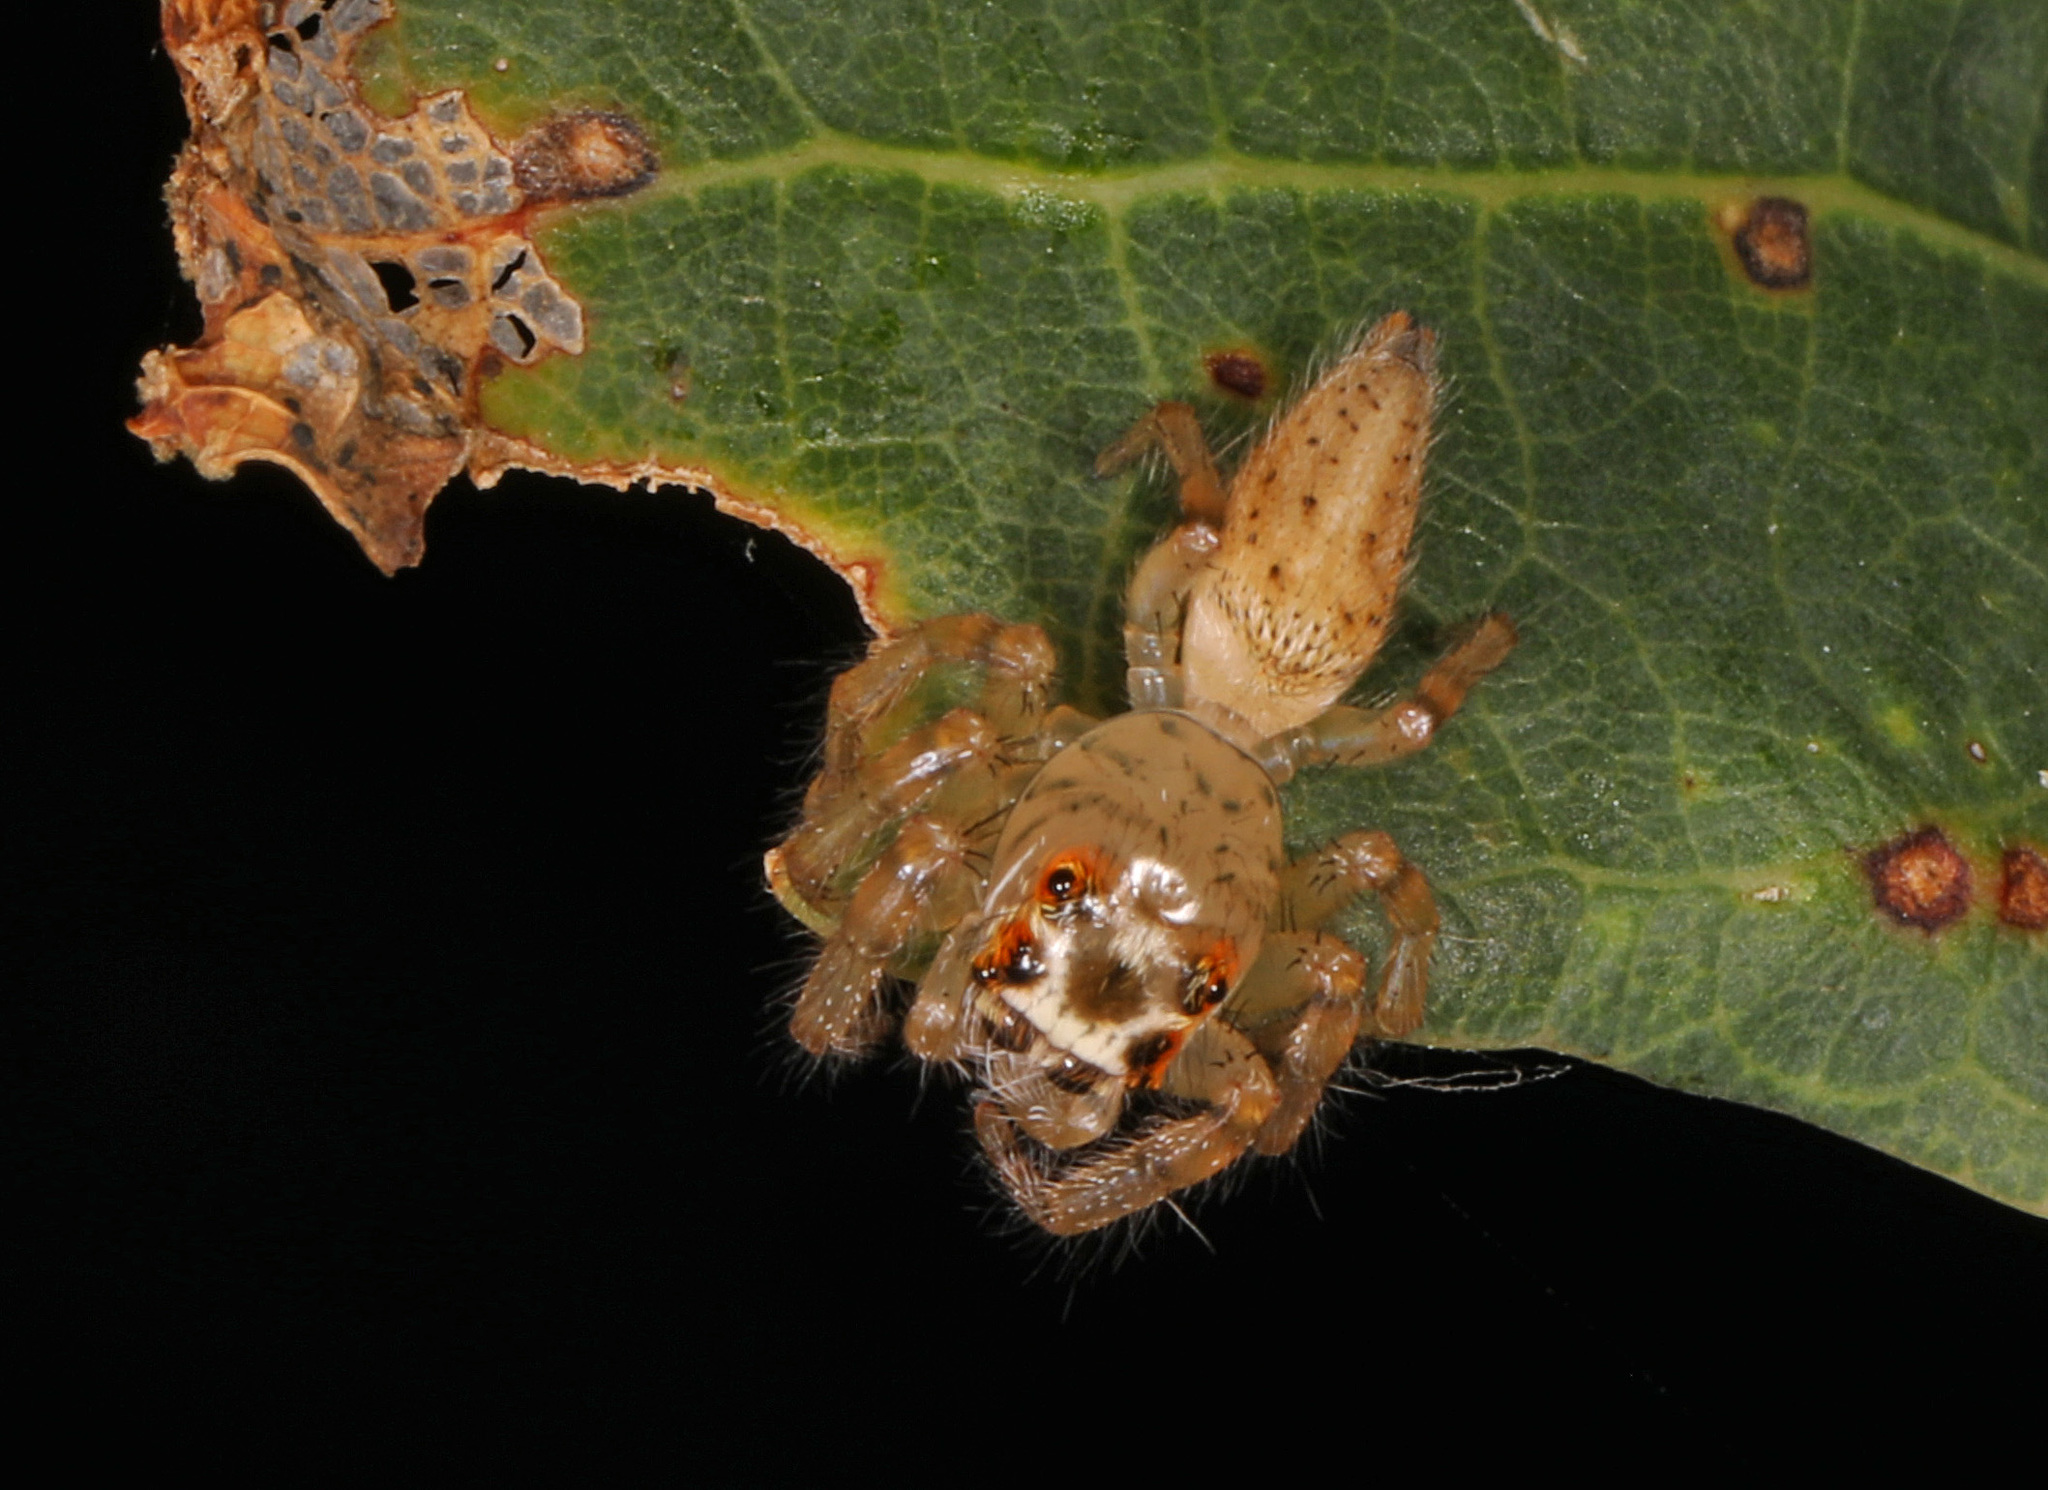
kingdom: Animalia
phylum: Arthropoda
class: Arachnida
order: Araneae
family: Salticidae
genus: Colonus
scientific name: Colonus sylvanus
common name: Jumping spiders
